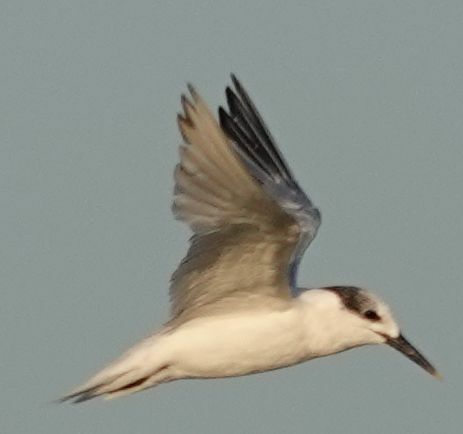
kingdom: Animalia
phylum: Chordata
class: Aves
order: Charadriiformes
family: Laridae
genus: Thalasseus
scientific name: Thalasseus sandvicensis
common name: Sandwich tern
